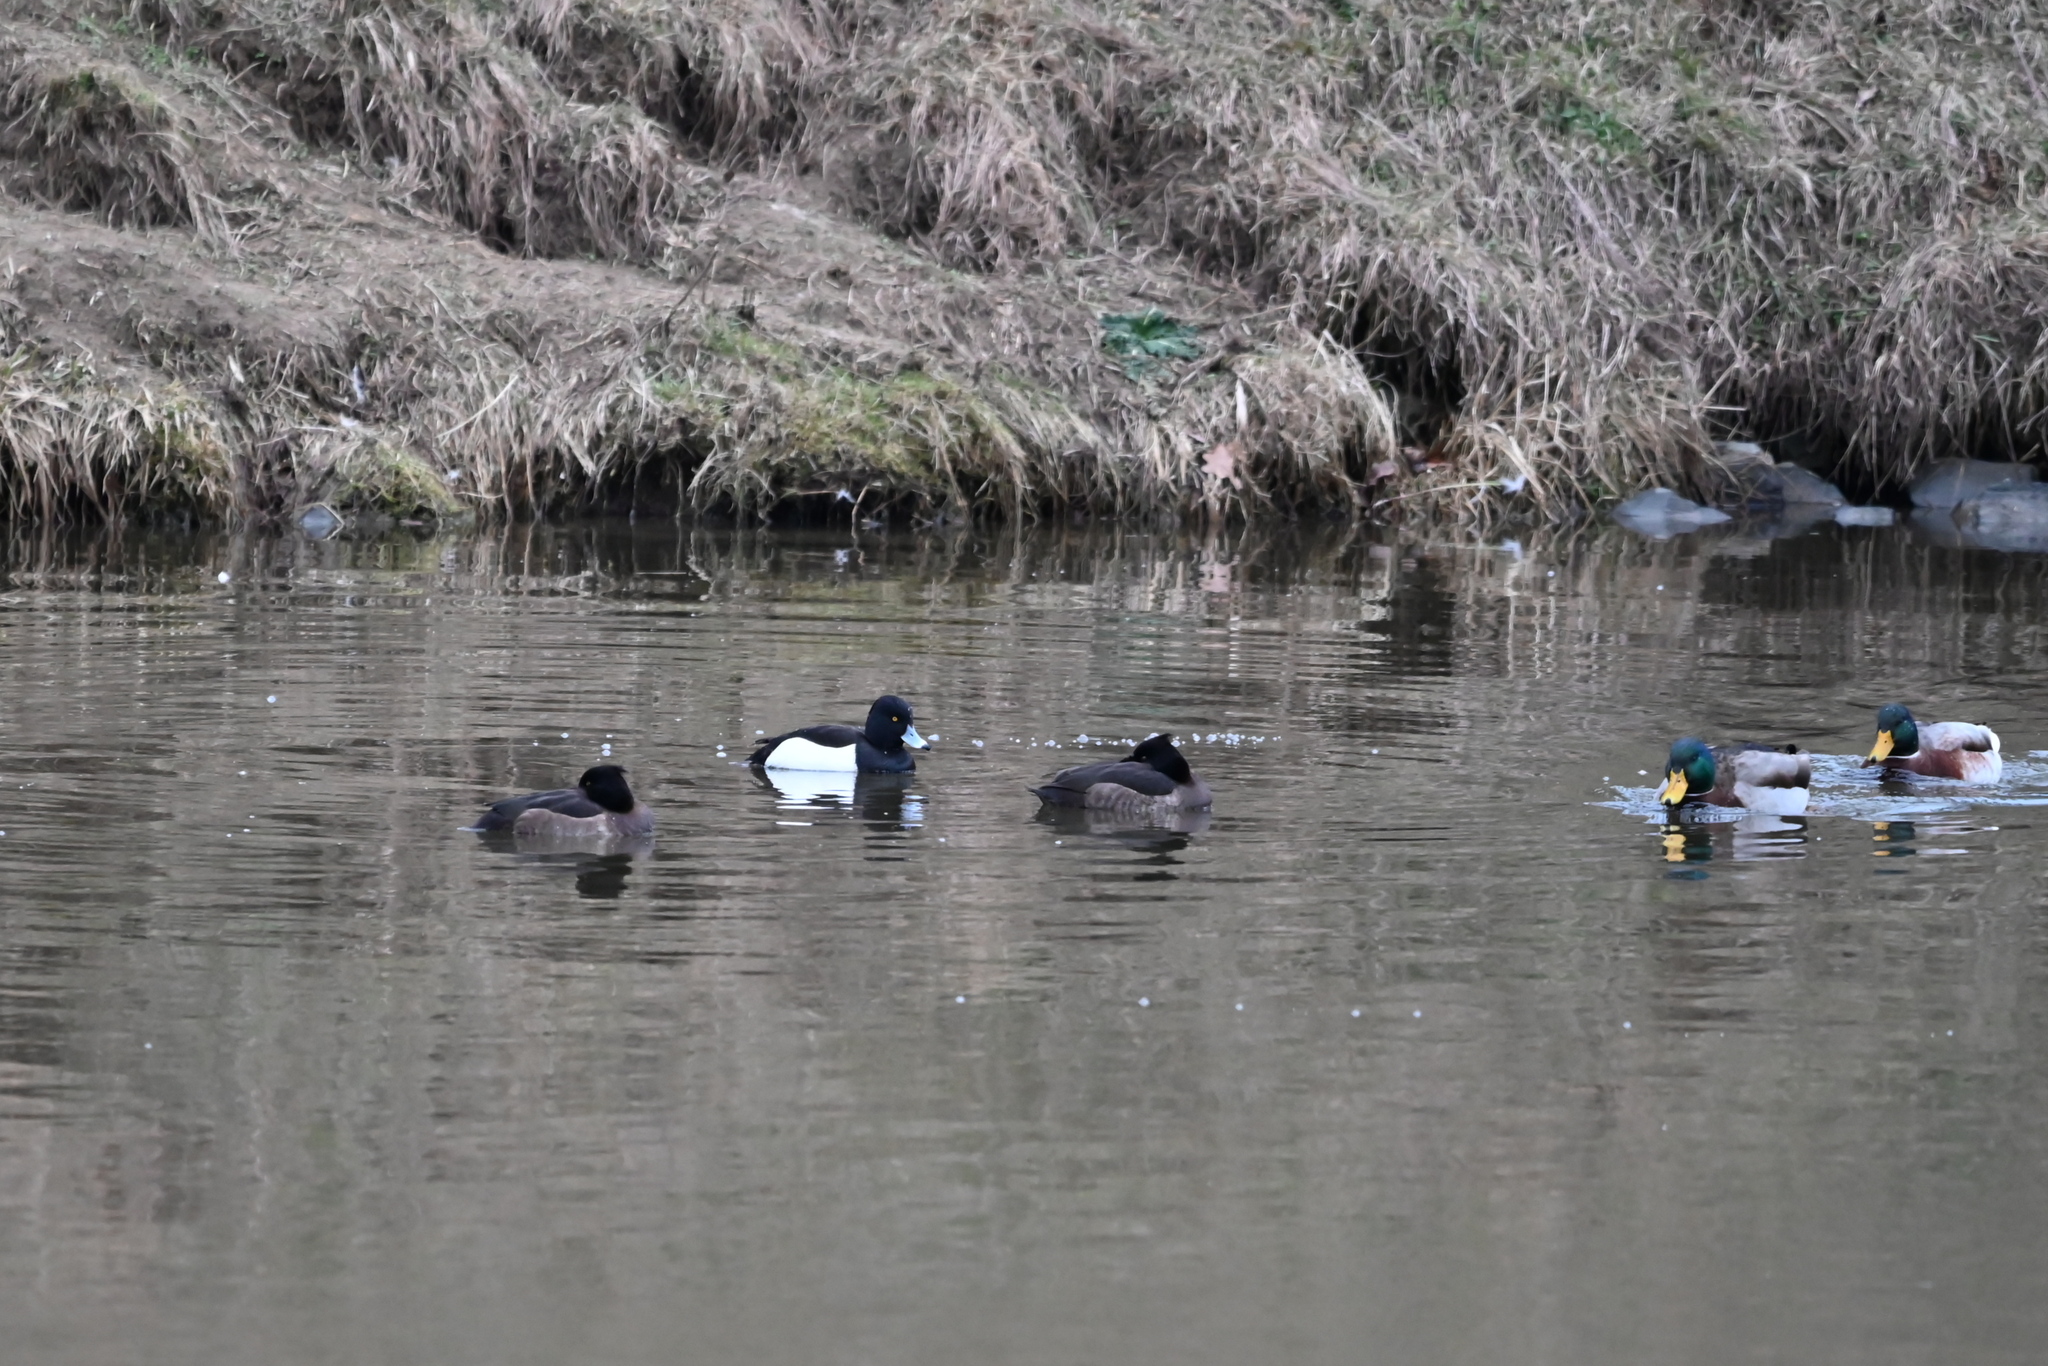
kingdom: Animalia
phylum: Chordata
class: Aves
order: Anseriformes
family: Anatidae
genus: Aythya
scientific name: Aythya fuligula
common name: Tufted duck
